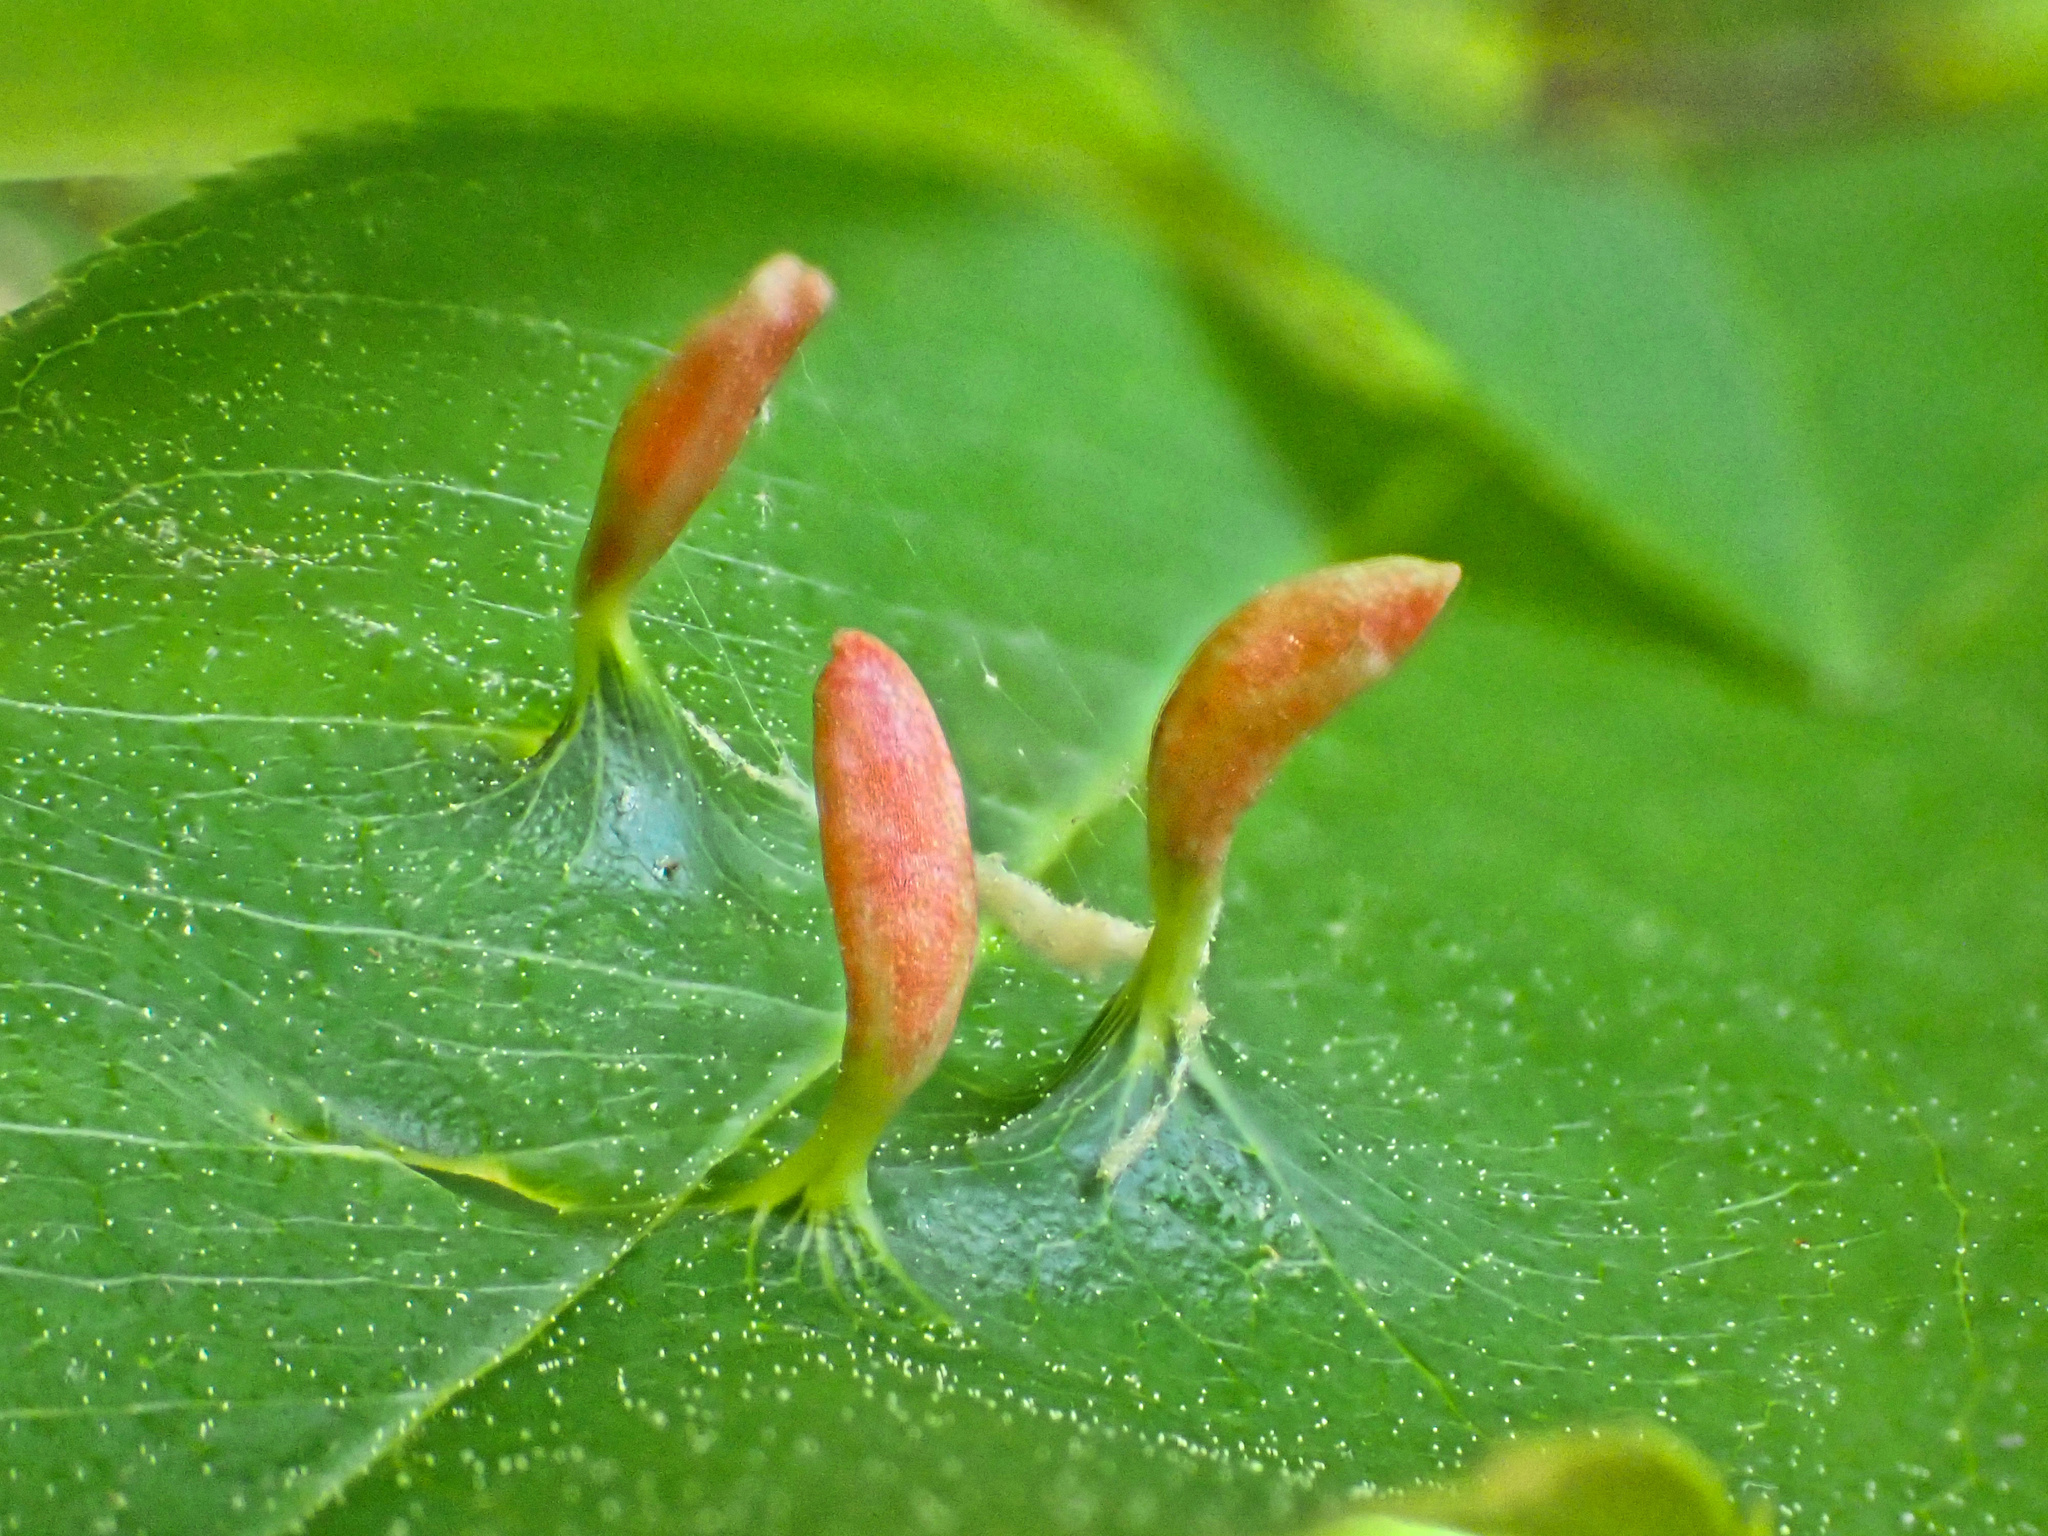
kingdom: Animalia
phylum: Arthropoda
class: Arachnida
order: Trombidiformes
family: Eriophyidae
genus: Eriophyes
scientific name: Eriophyes
